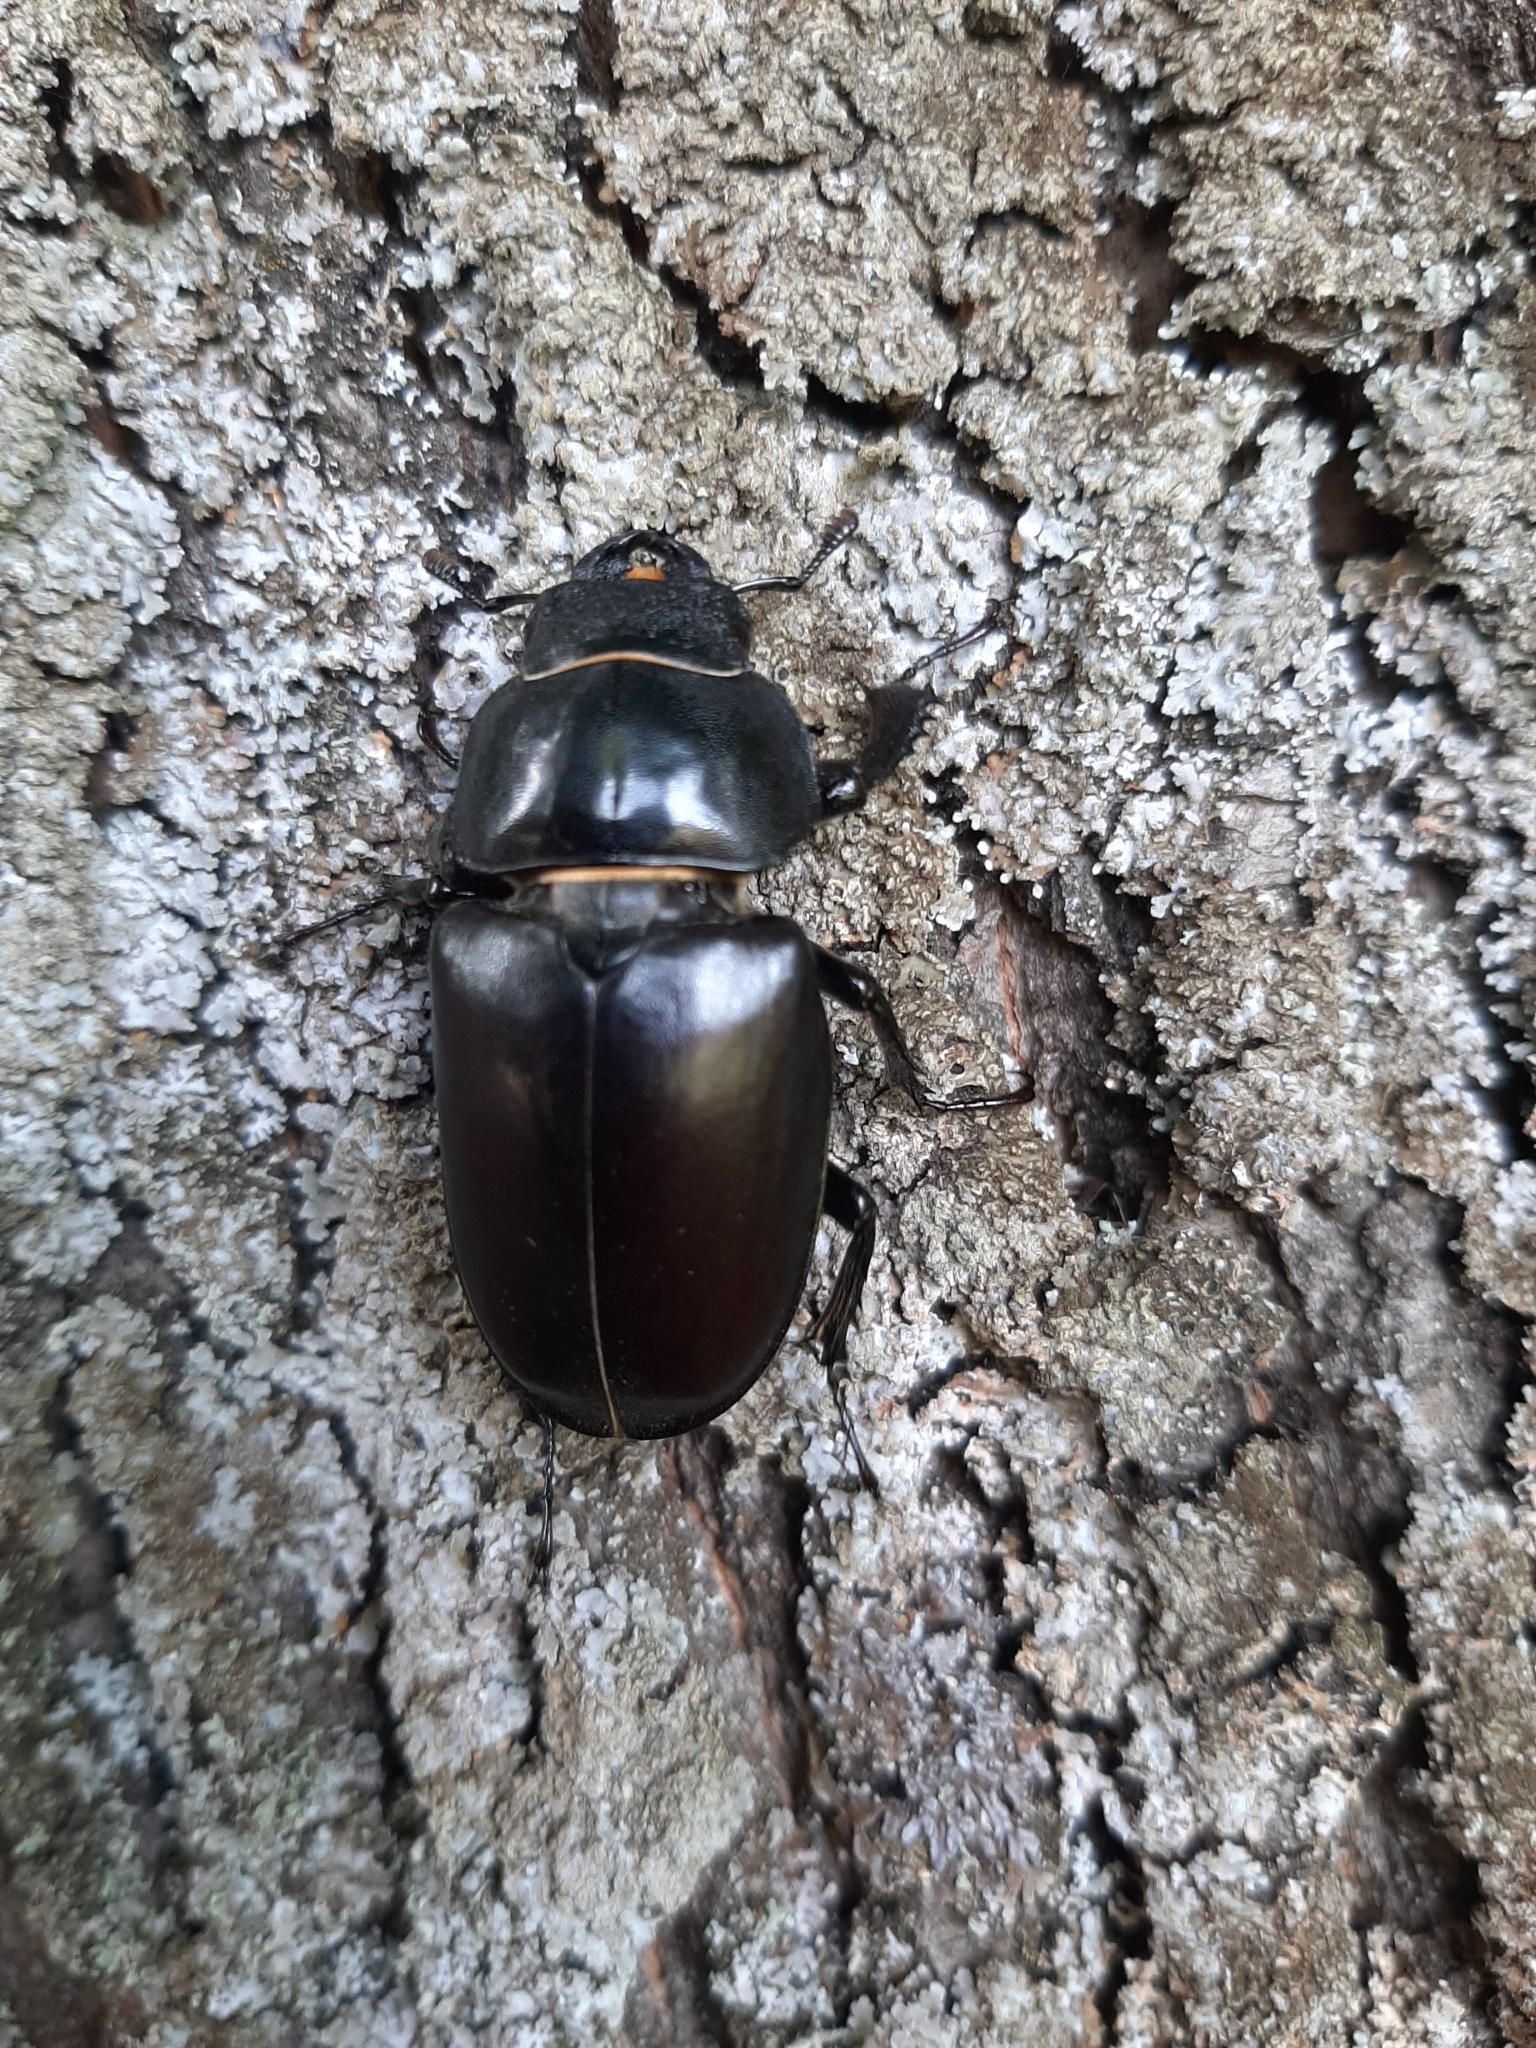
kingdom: Animalia
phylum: Arthropoda
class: Insecta
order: Coleoptera
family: Lucanidae
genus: Lucanus
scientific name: Lucanus cervus
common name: Stag beetle
